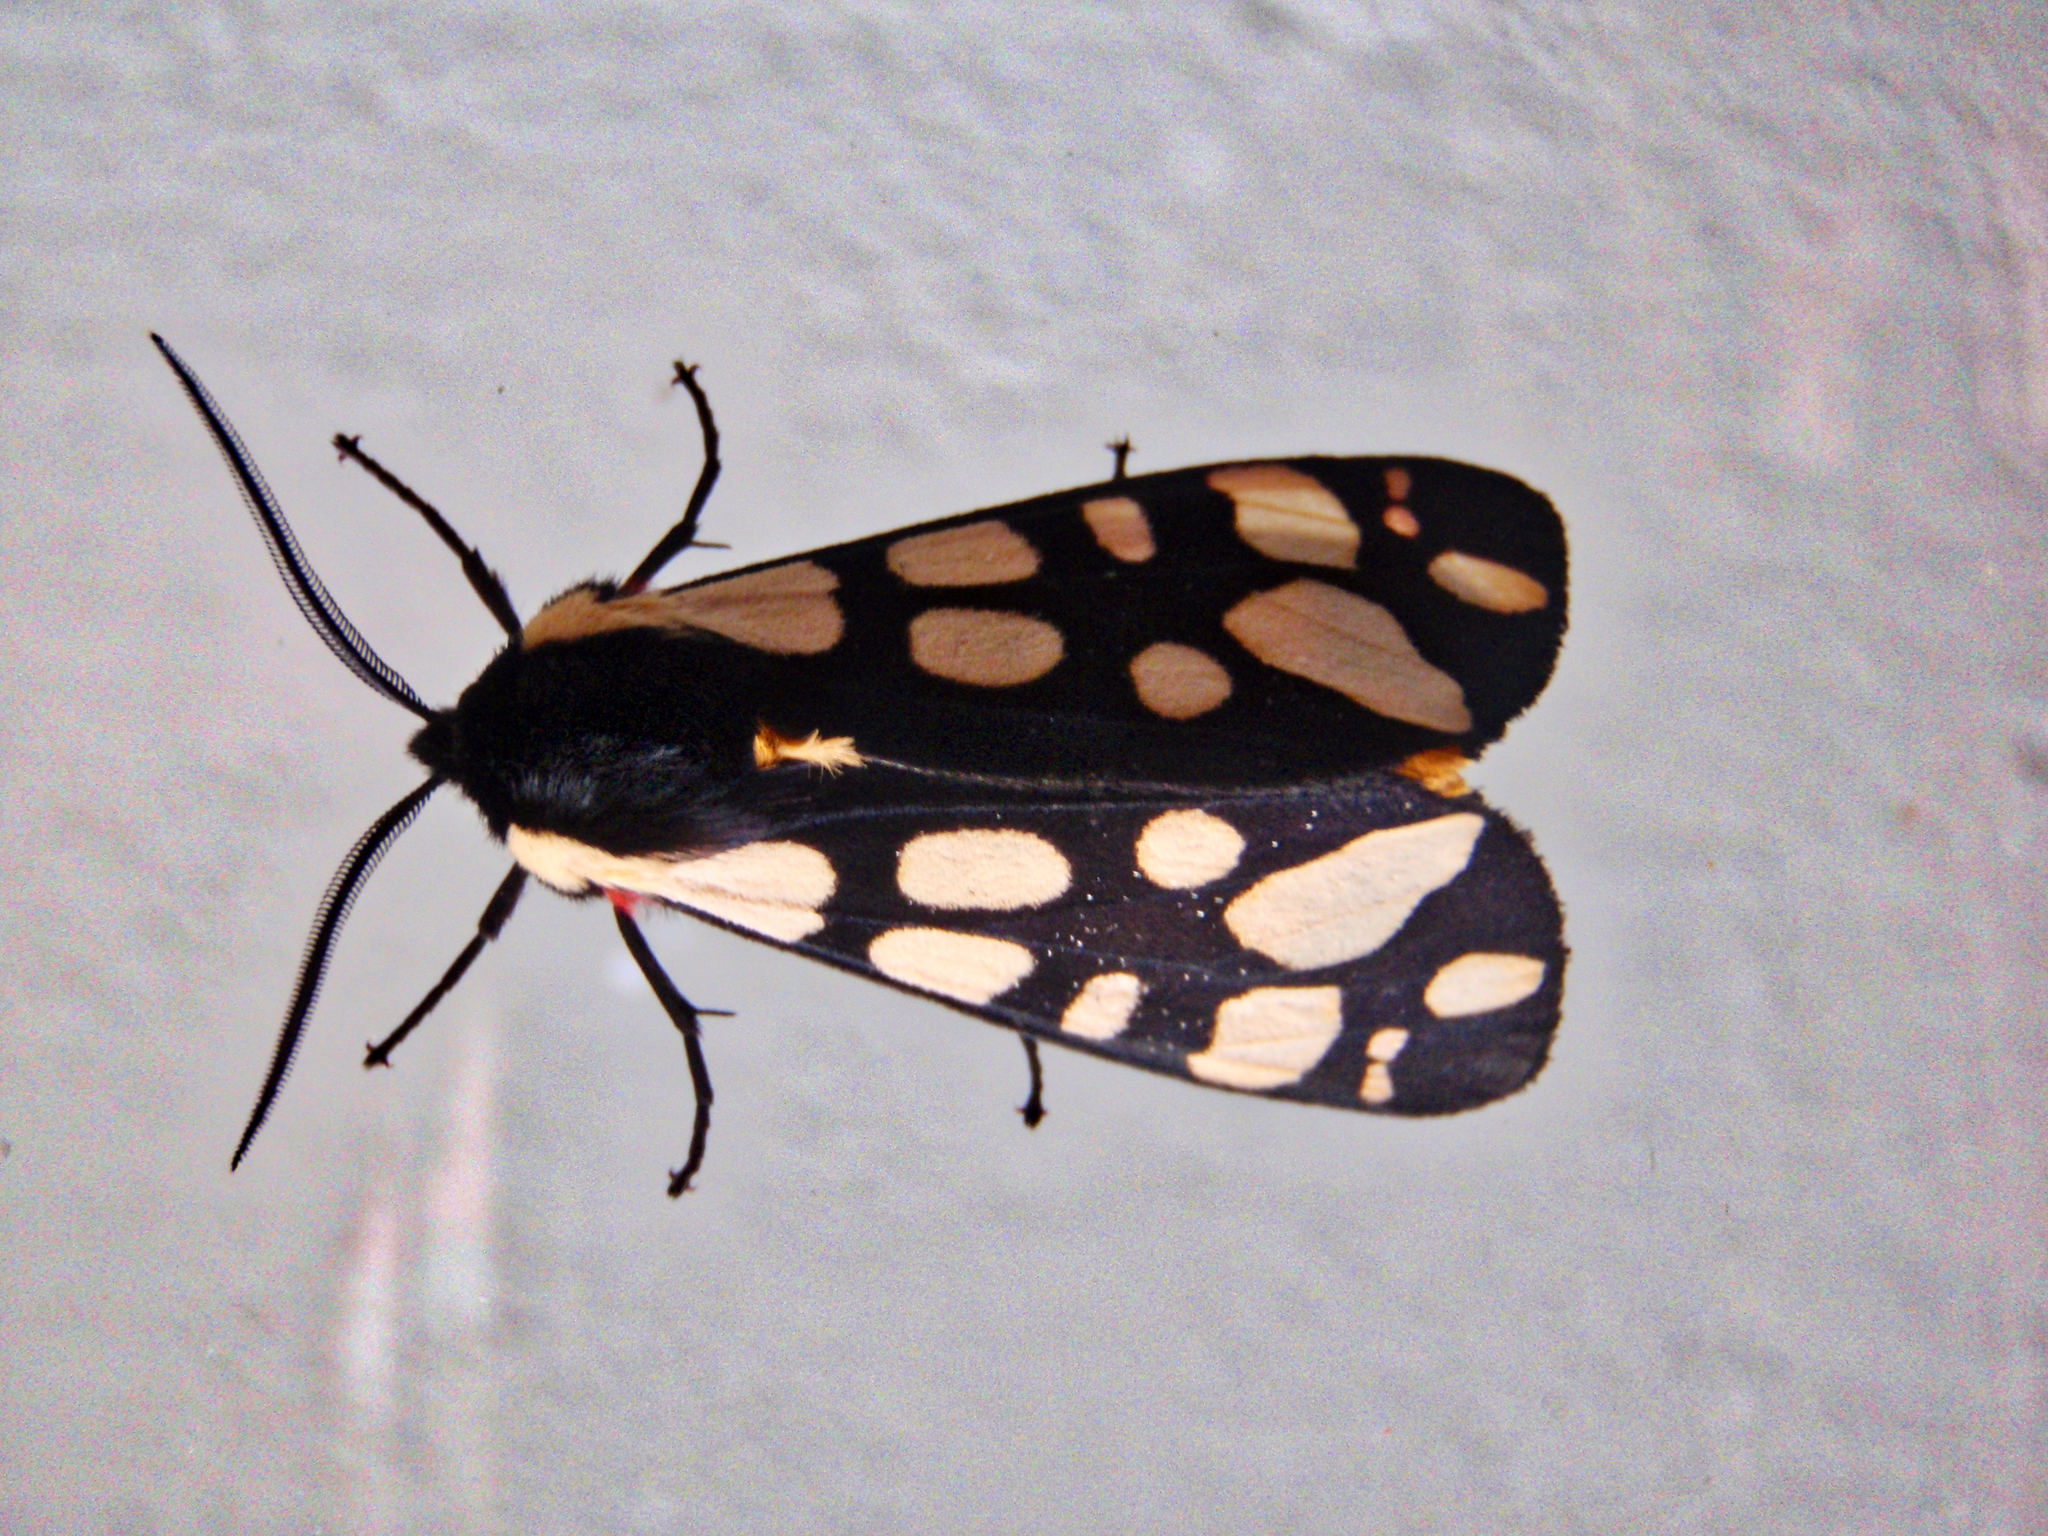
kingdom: Animalia
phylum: Arthropoda
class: Insecta
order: Lepidoptera
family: Erebidae
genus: Epicallia
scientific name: Epicallia villica
